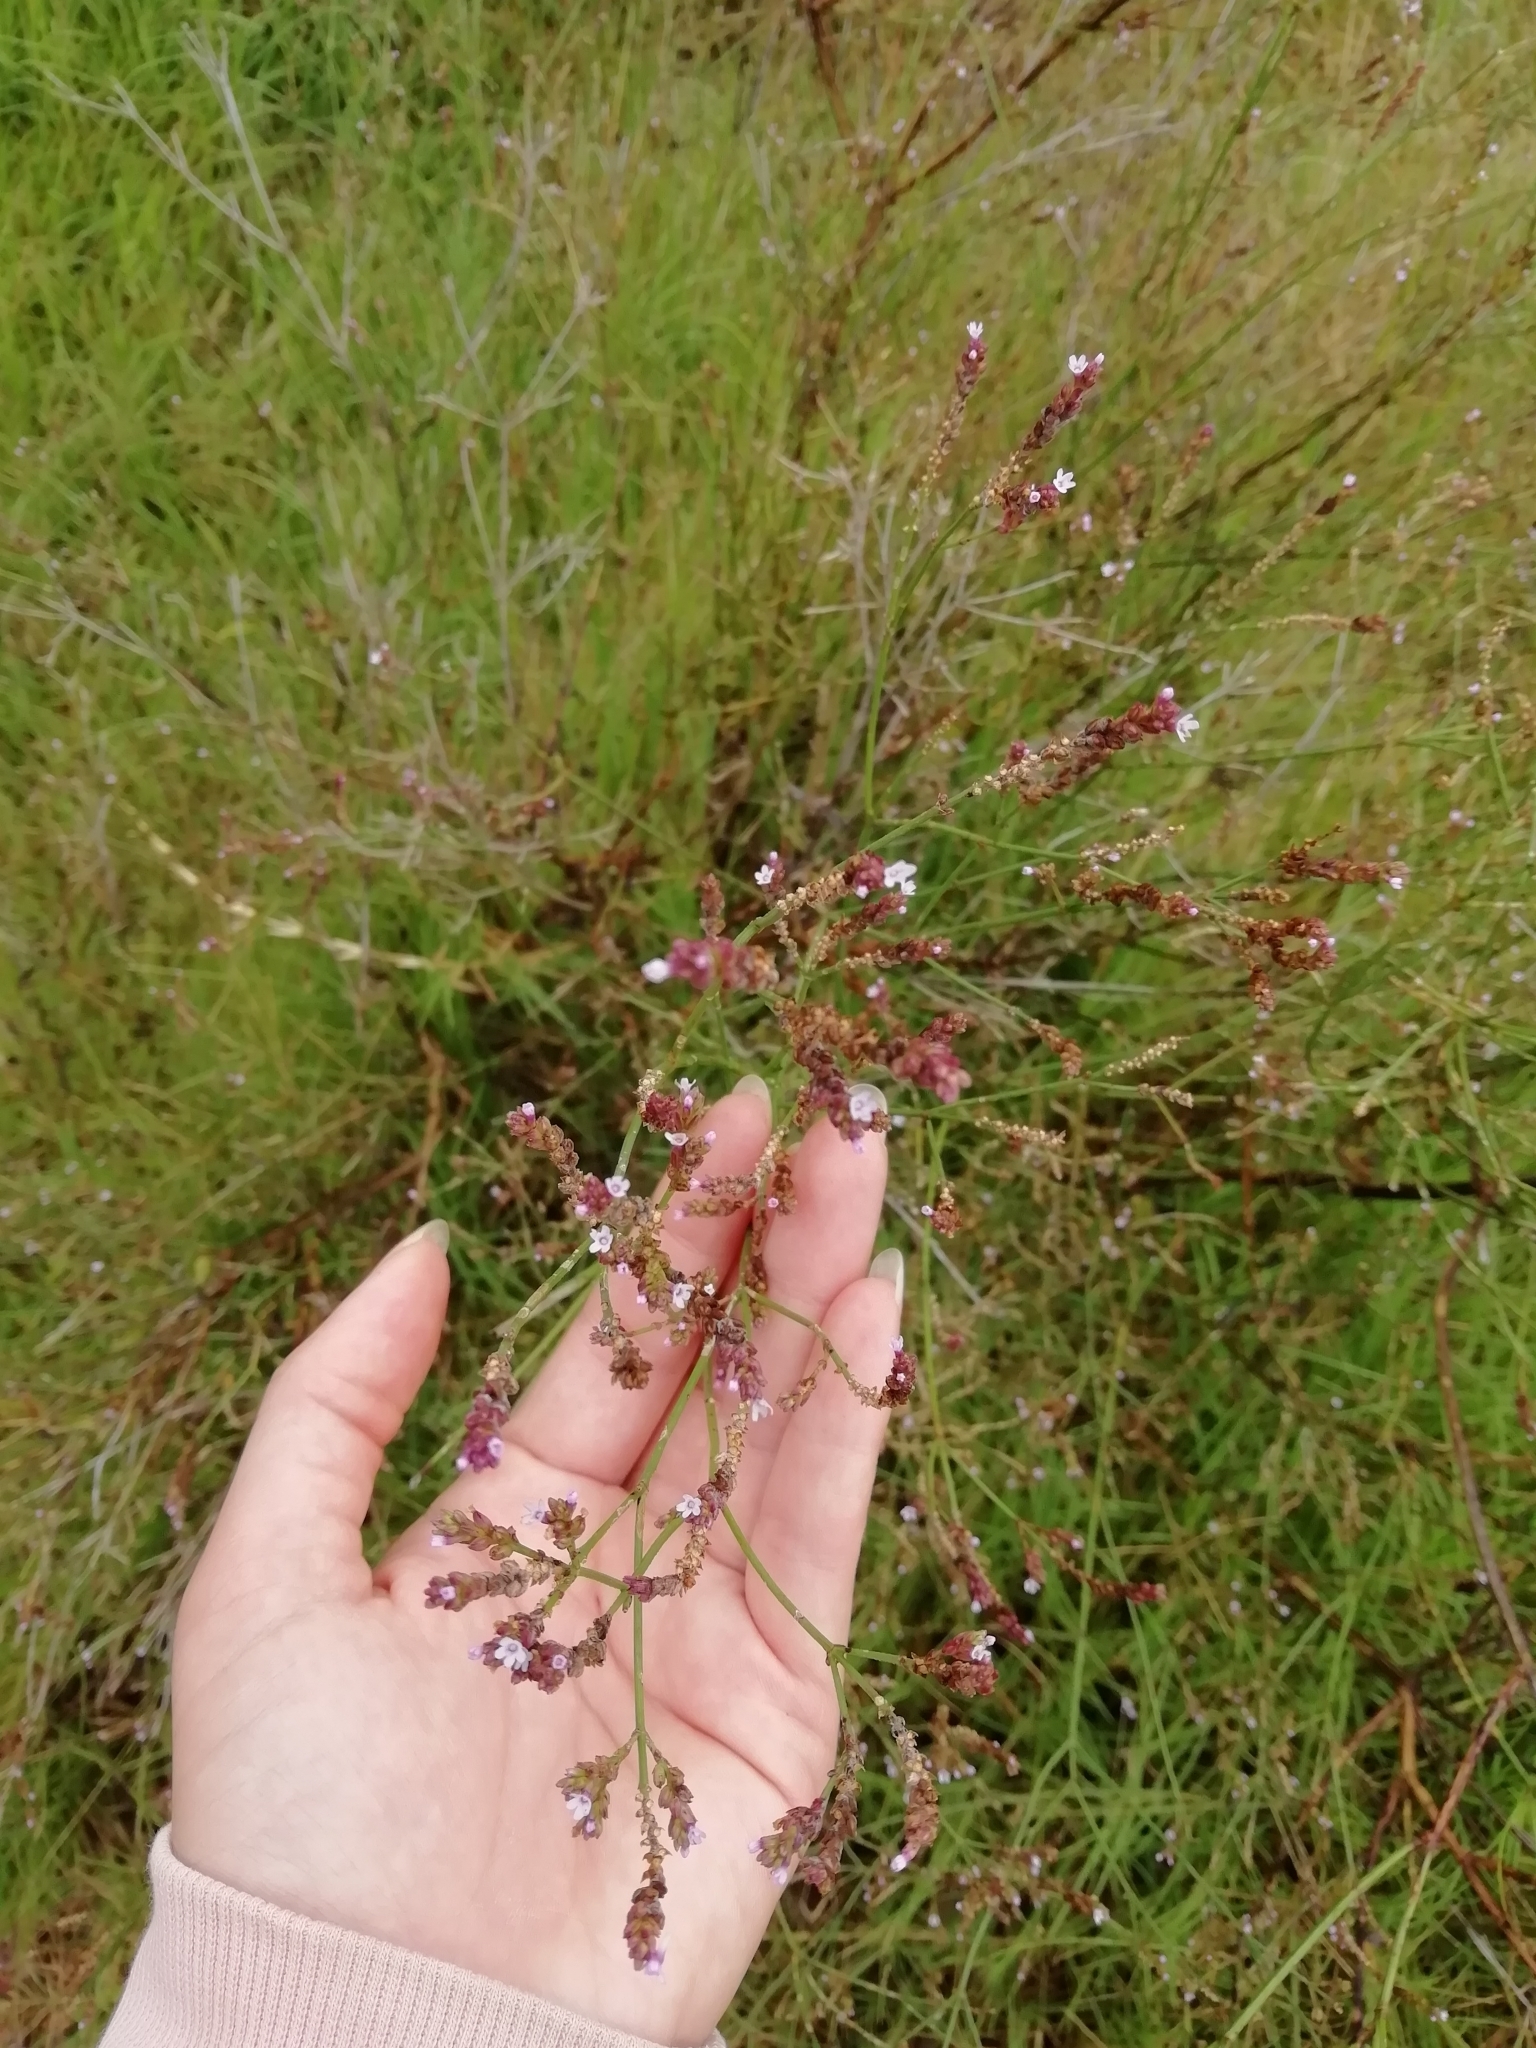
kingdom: Plantae
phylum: Tracheophyta
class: Magnoliopsida
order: Lamiales
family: Verbenaceae
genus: Verbena
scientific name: Verbena montevidensis
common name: Uruguayan vervain
